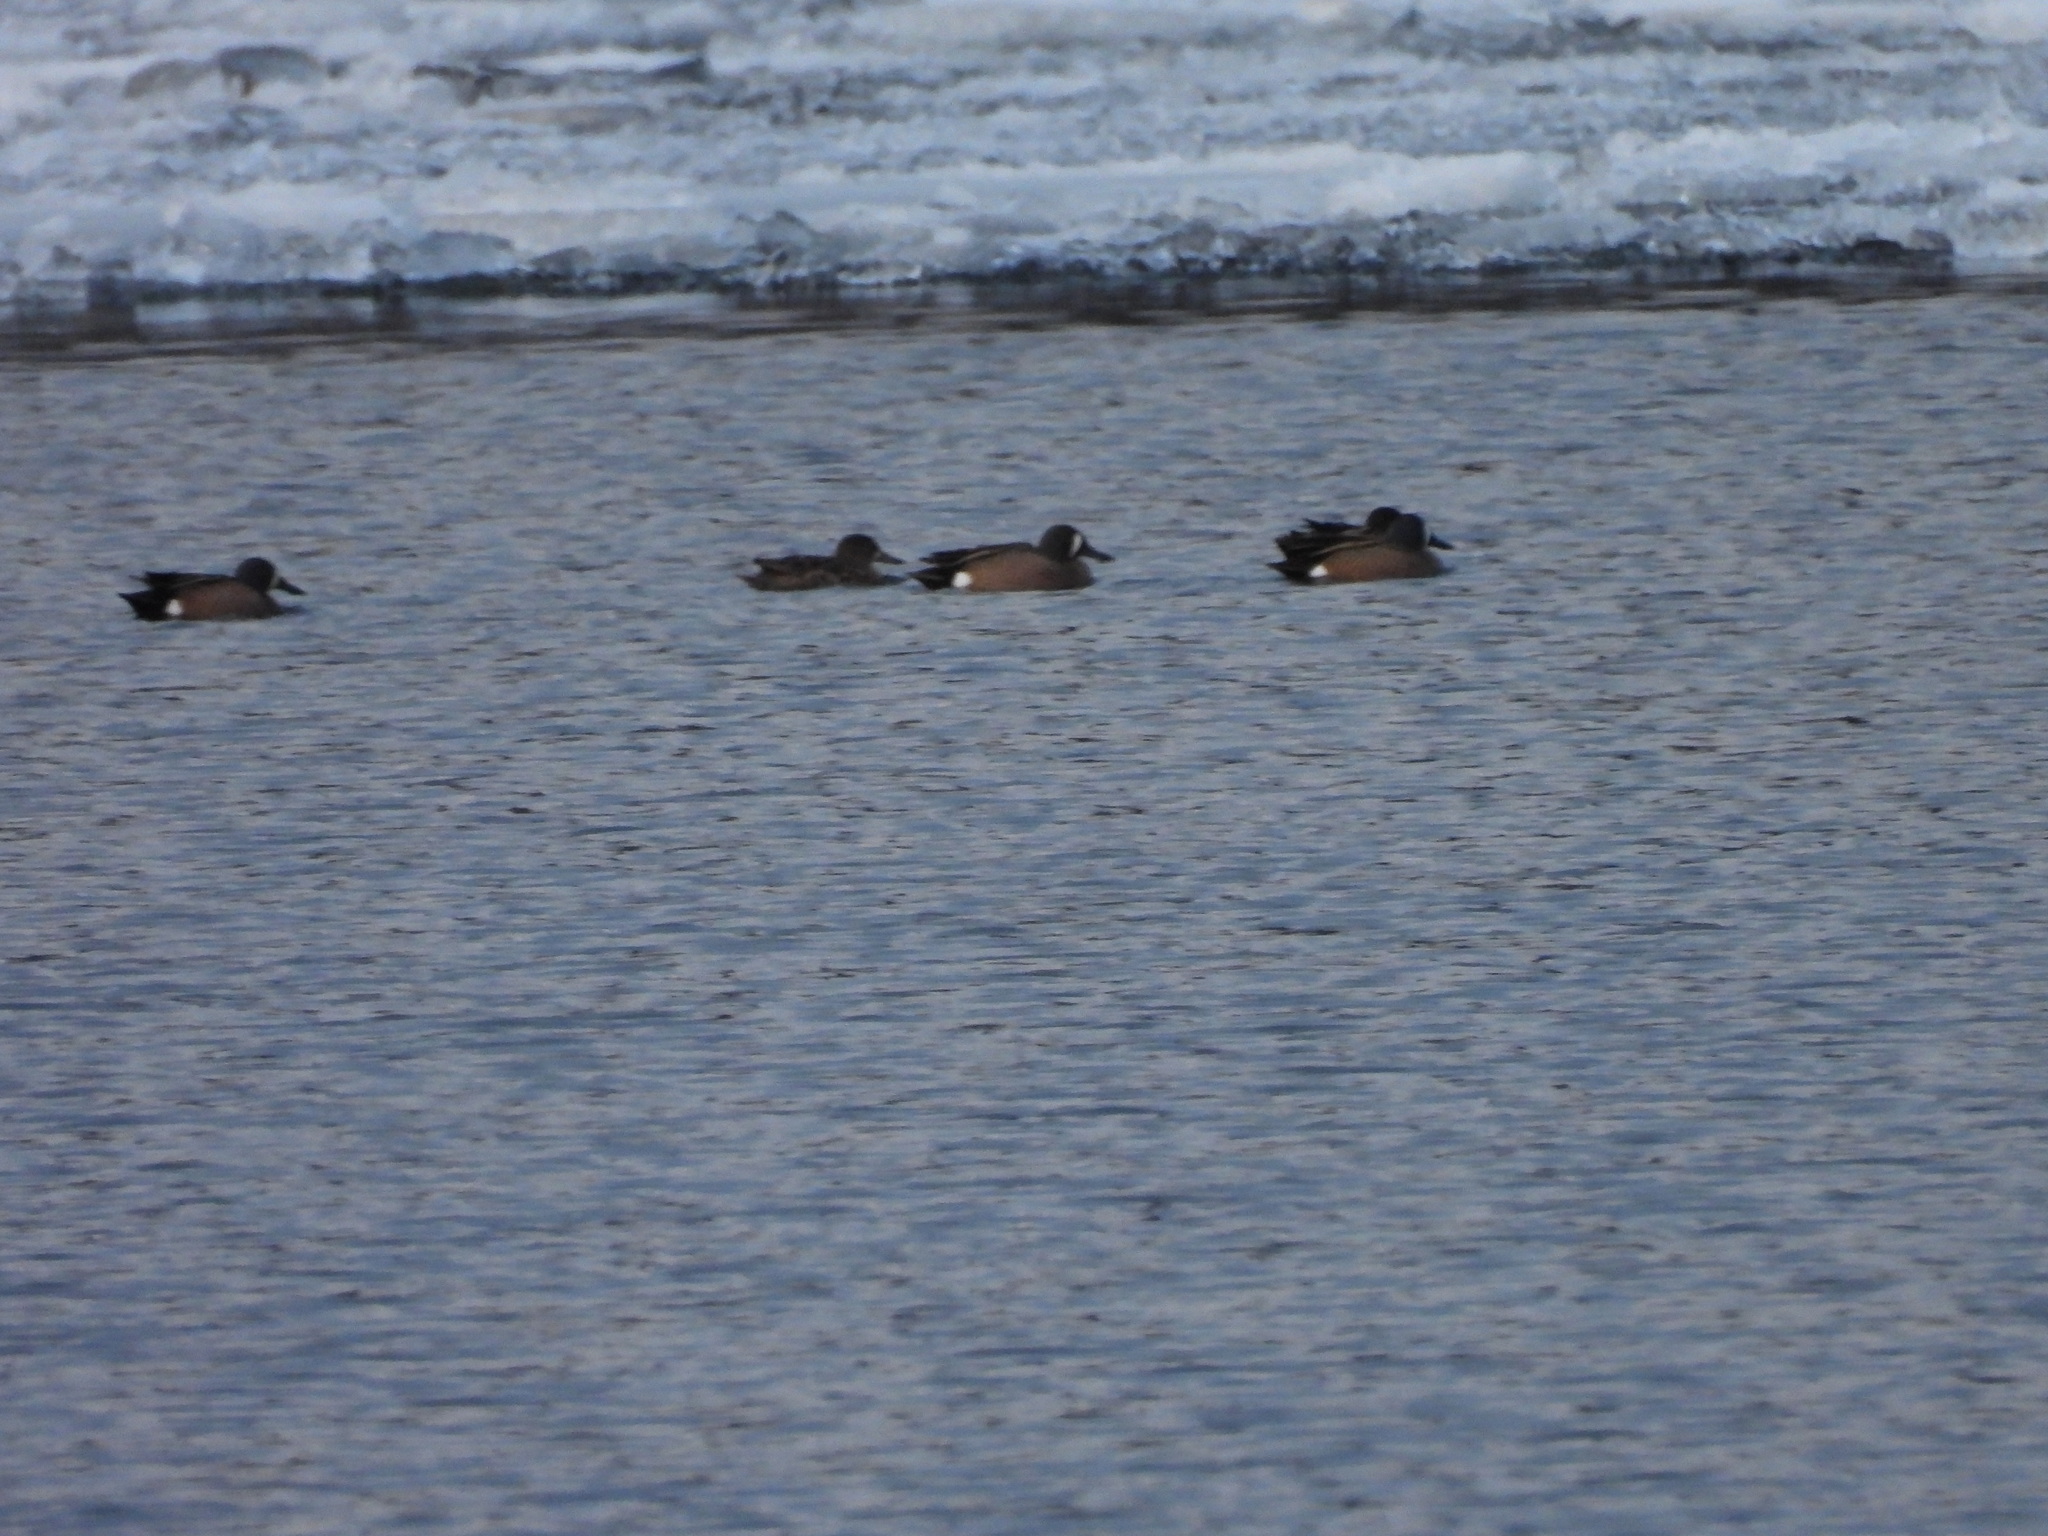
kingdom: Animalia
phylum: Chordata
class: Aves
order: Anseriformes
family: Anatidae
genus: Spatula
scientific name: Spatula discors
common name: Blue-winged teal
